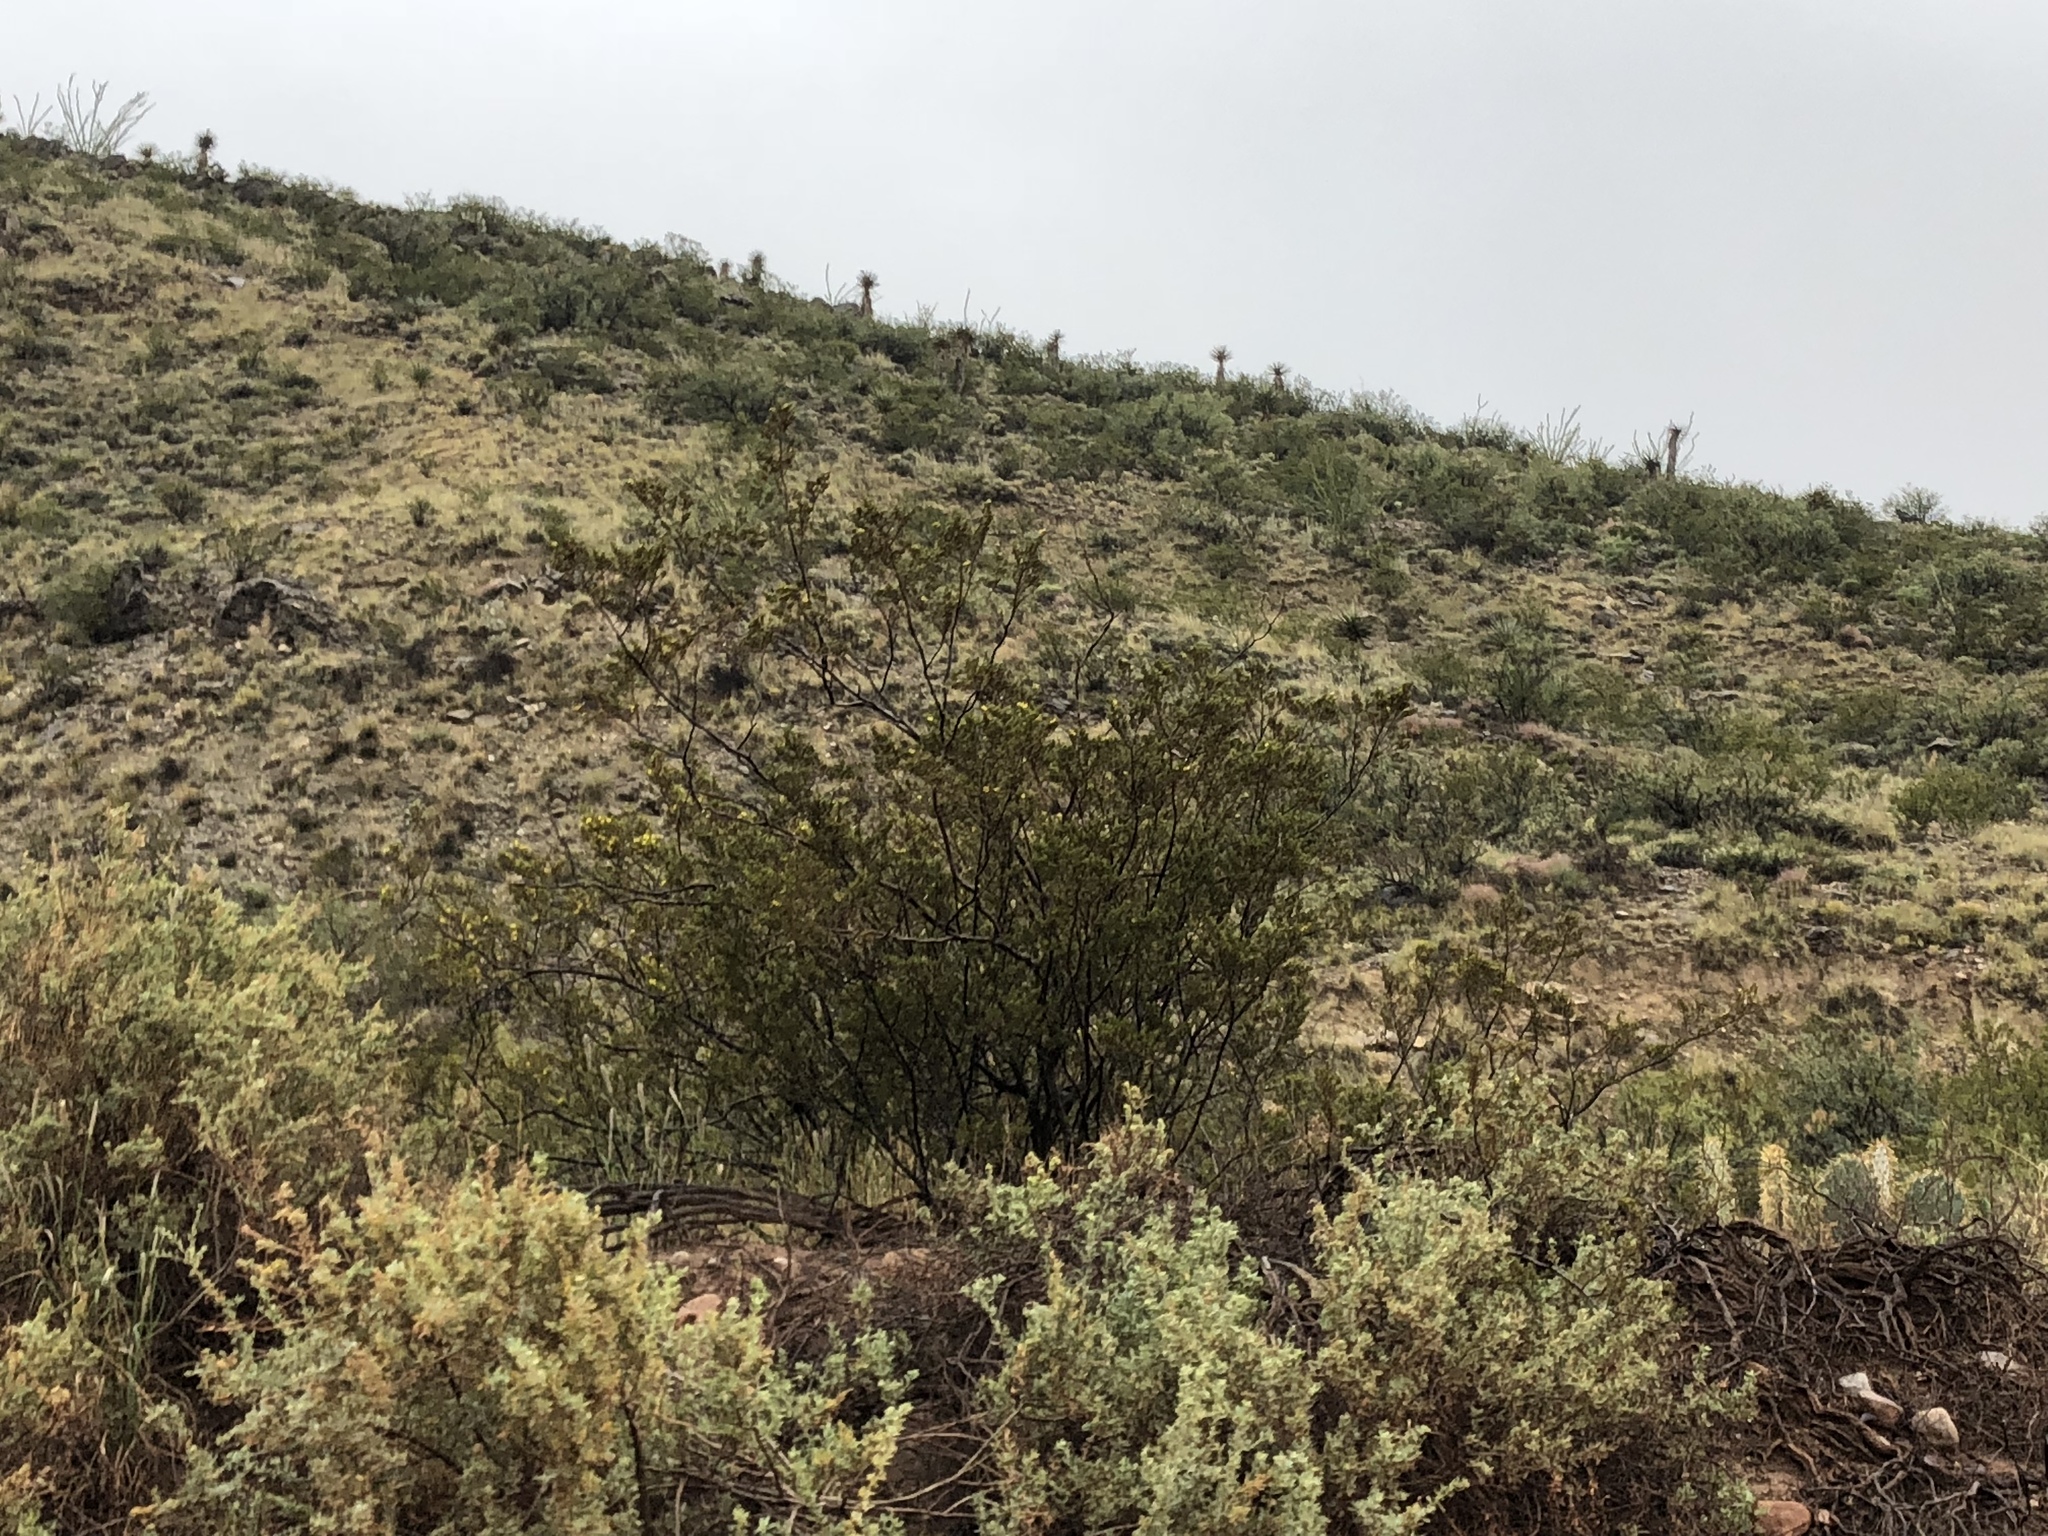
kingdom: Plantae
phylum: Tracheophyta
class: Magnoliopsida
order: Zygophyllales
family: Zygophyllaceae
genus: Larrea
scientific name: Larrea tridentata
